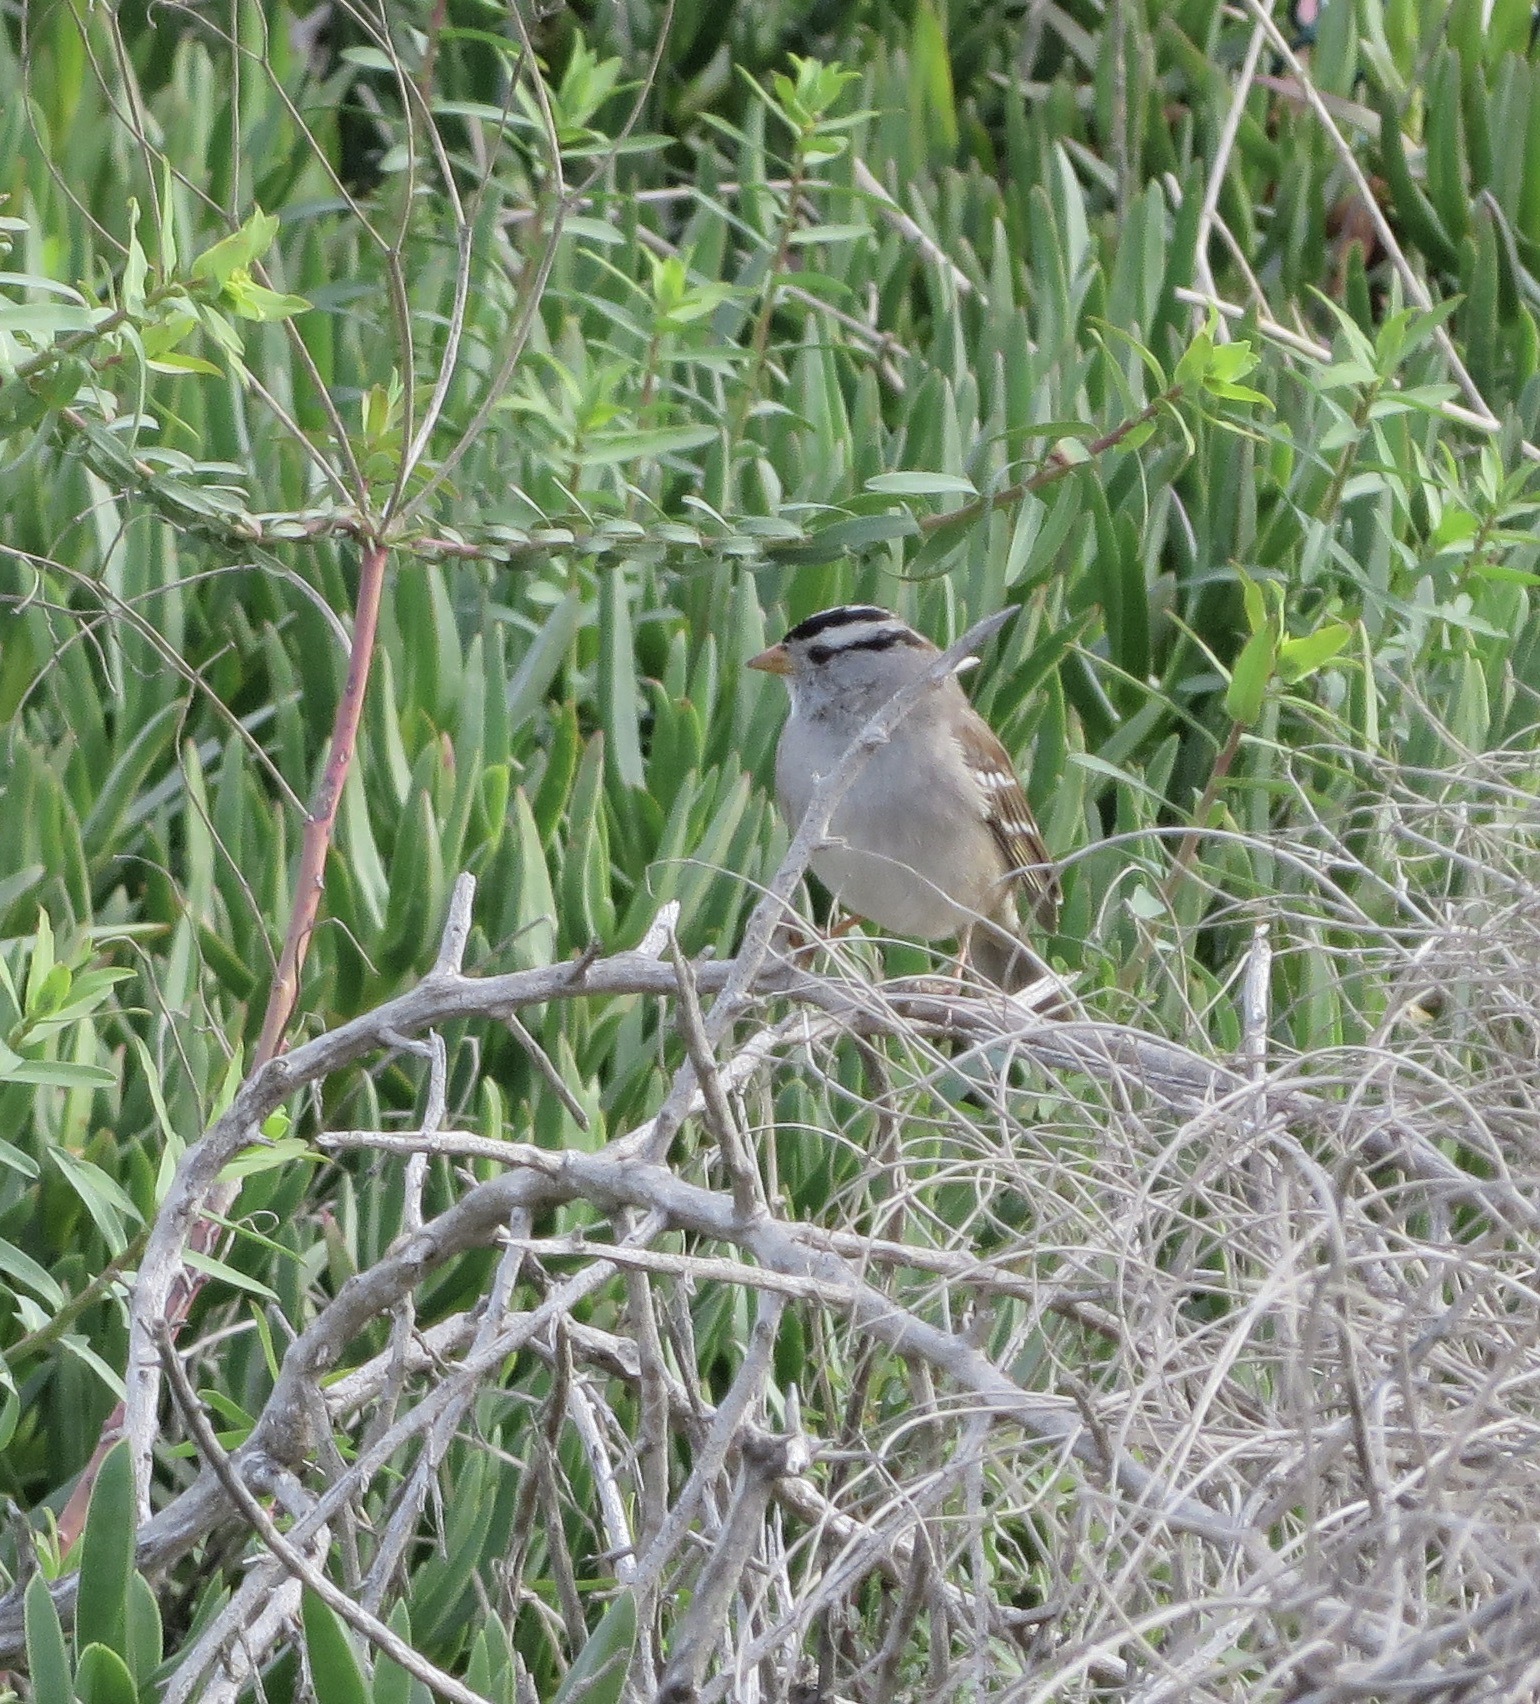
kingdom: Animalia
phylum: Chordata
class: Aves
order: Passeriformes
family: Passerellidae
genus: Zonotrichia
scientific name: Zonotrichia leucophrys
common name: White-crowned sparrow
